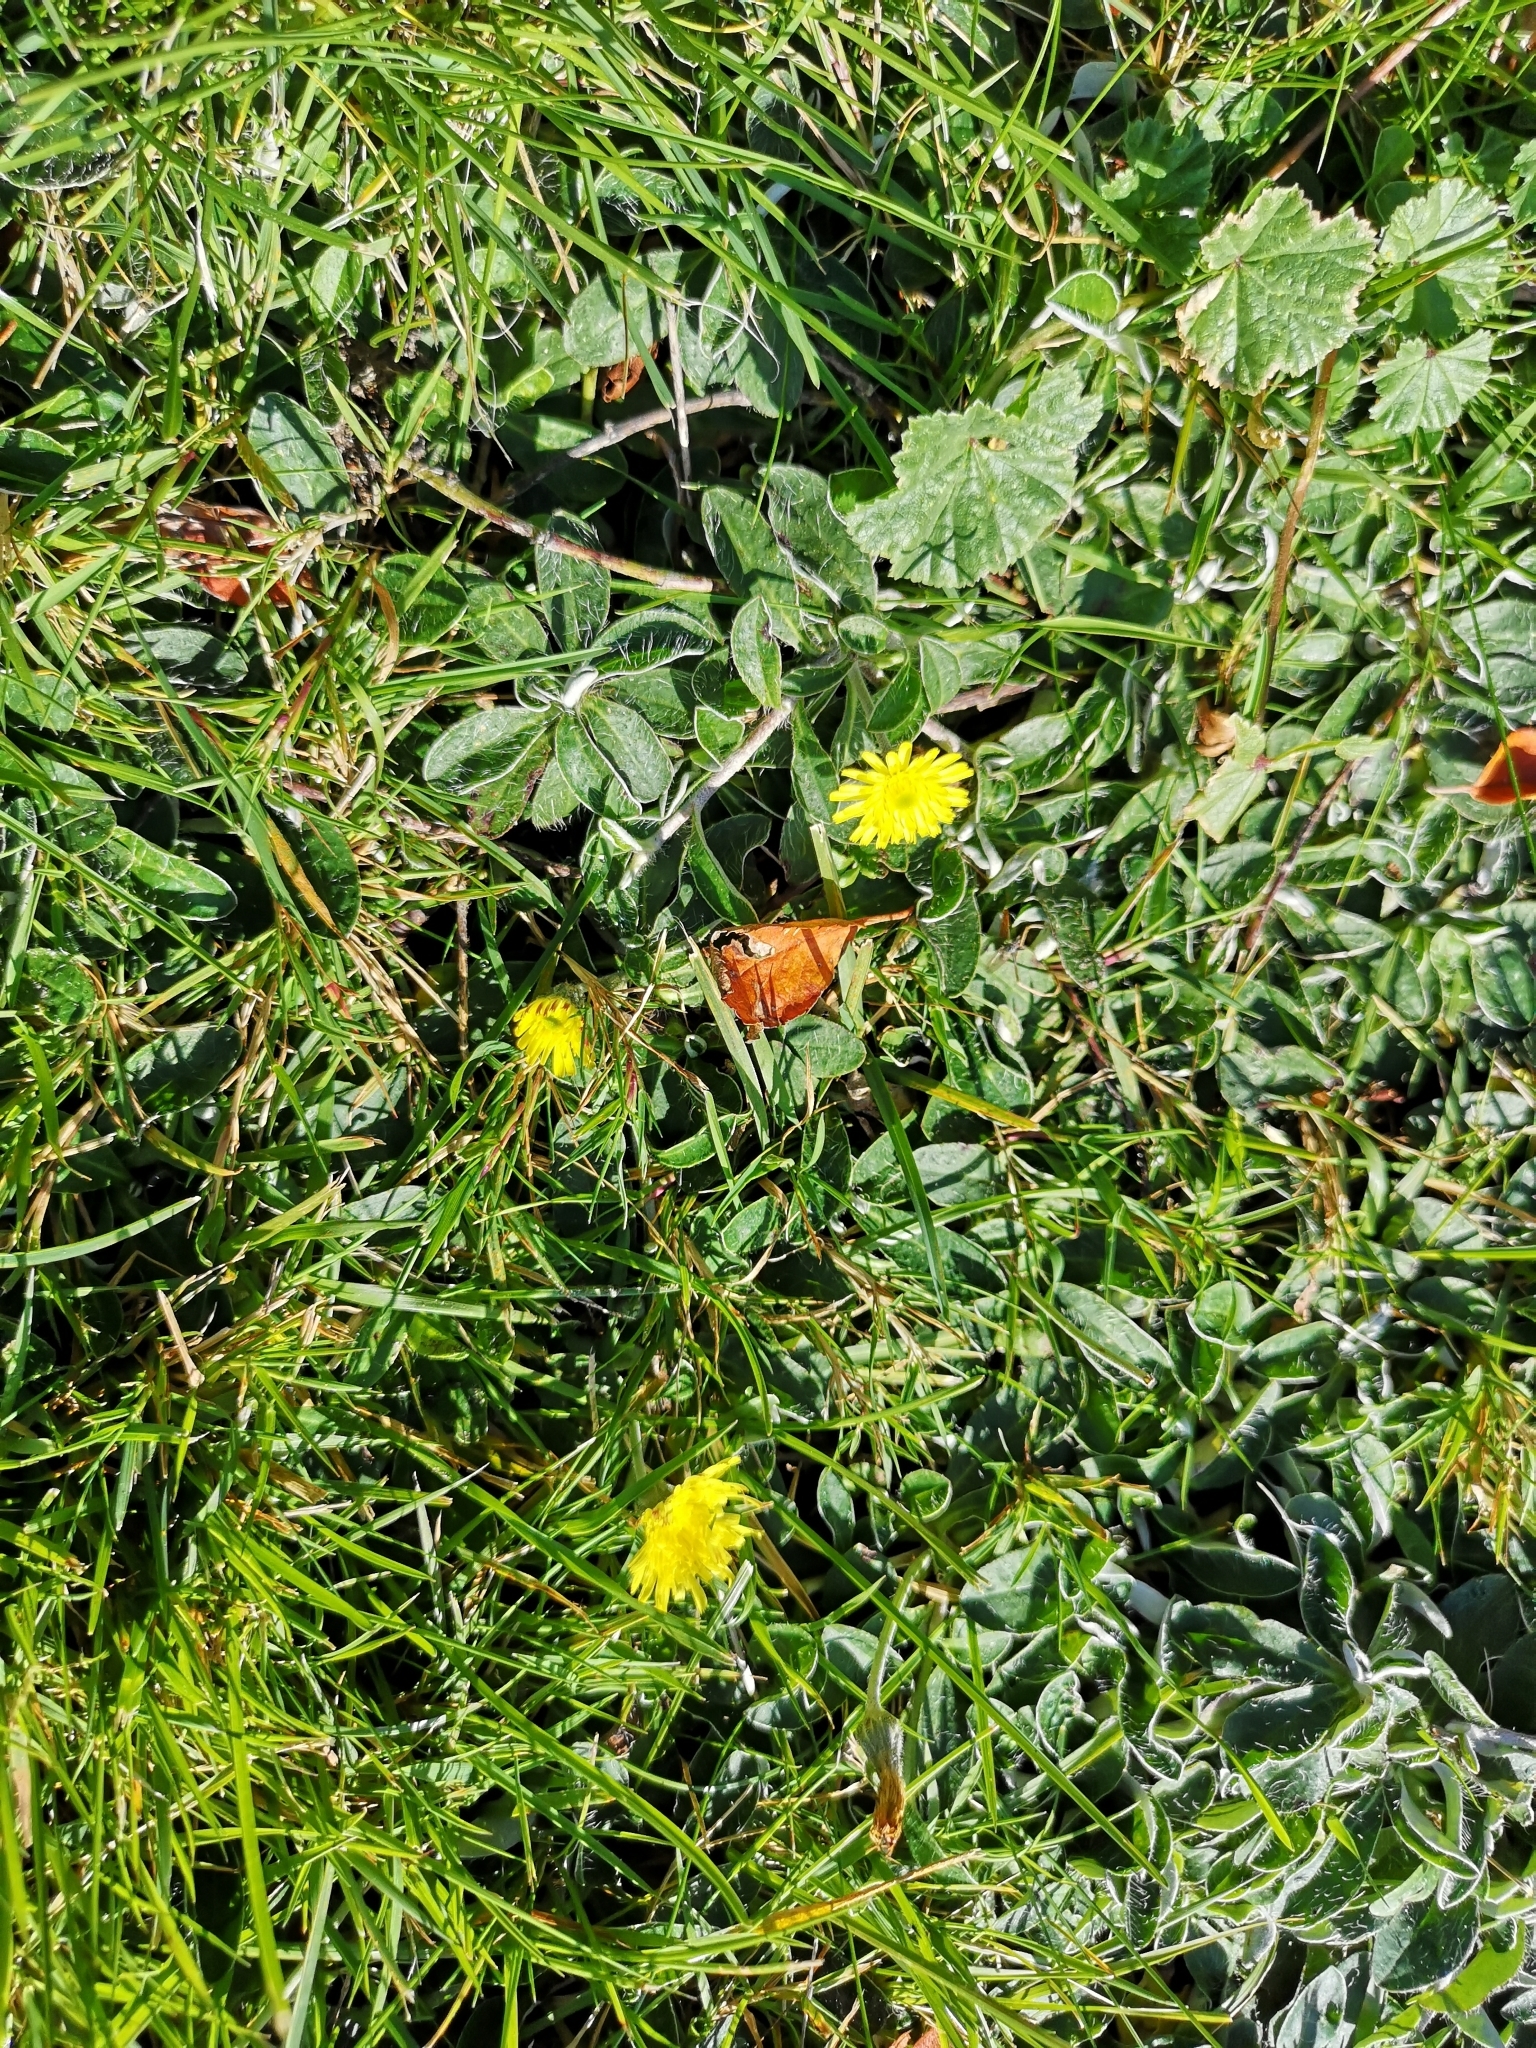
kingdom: Plantae
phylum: Tracheophyta
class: Magnoliopsida
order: Asterales
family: Asteraceae
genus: Pilosella
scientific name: Pilosella officinarum
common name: Mouse-ear hawkweed
